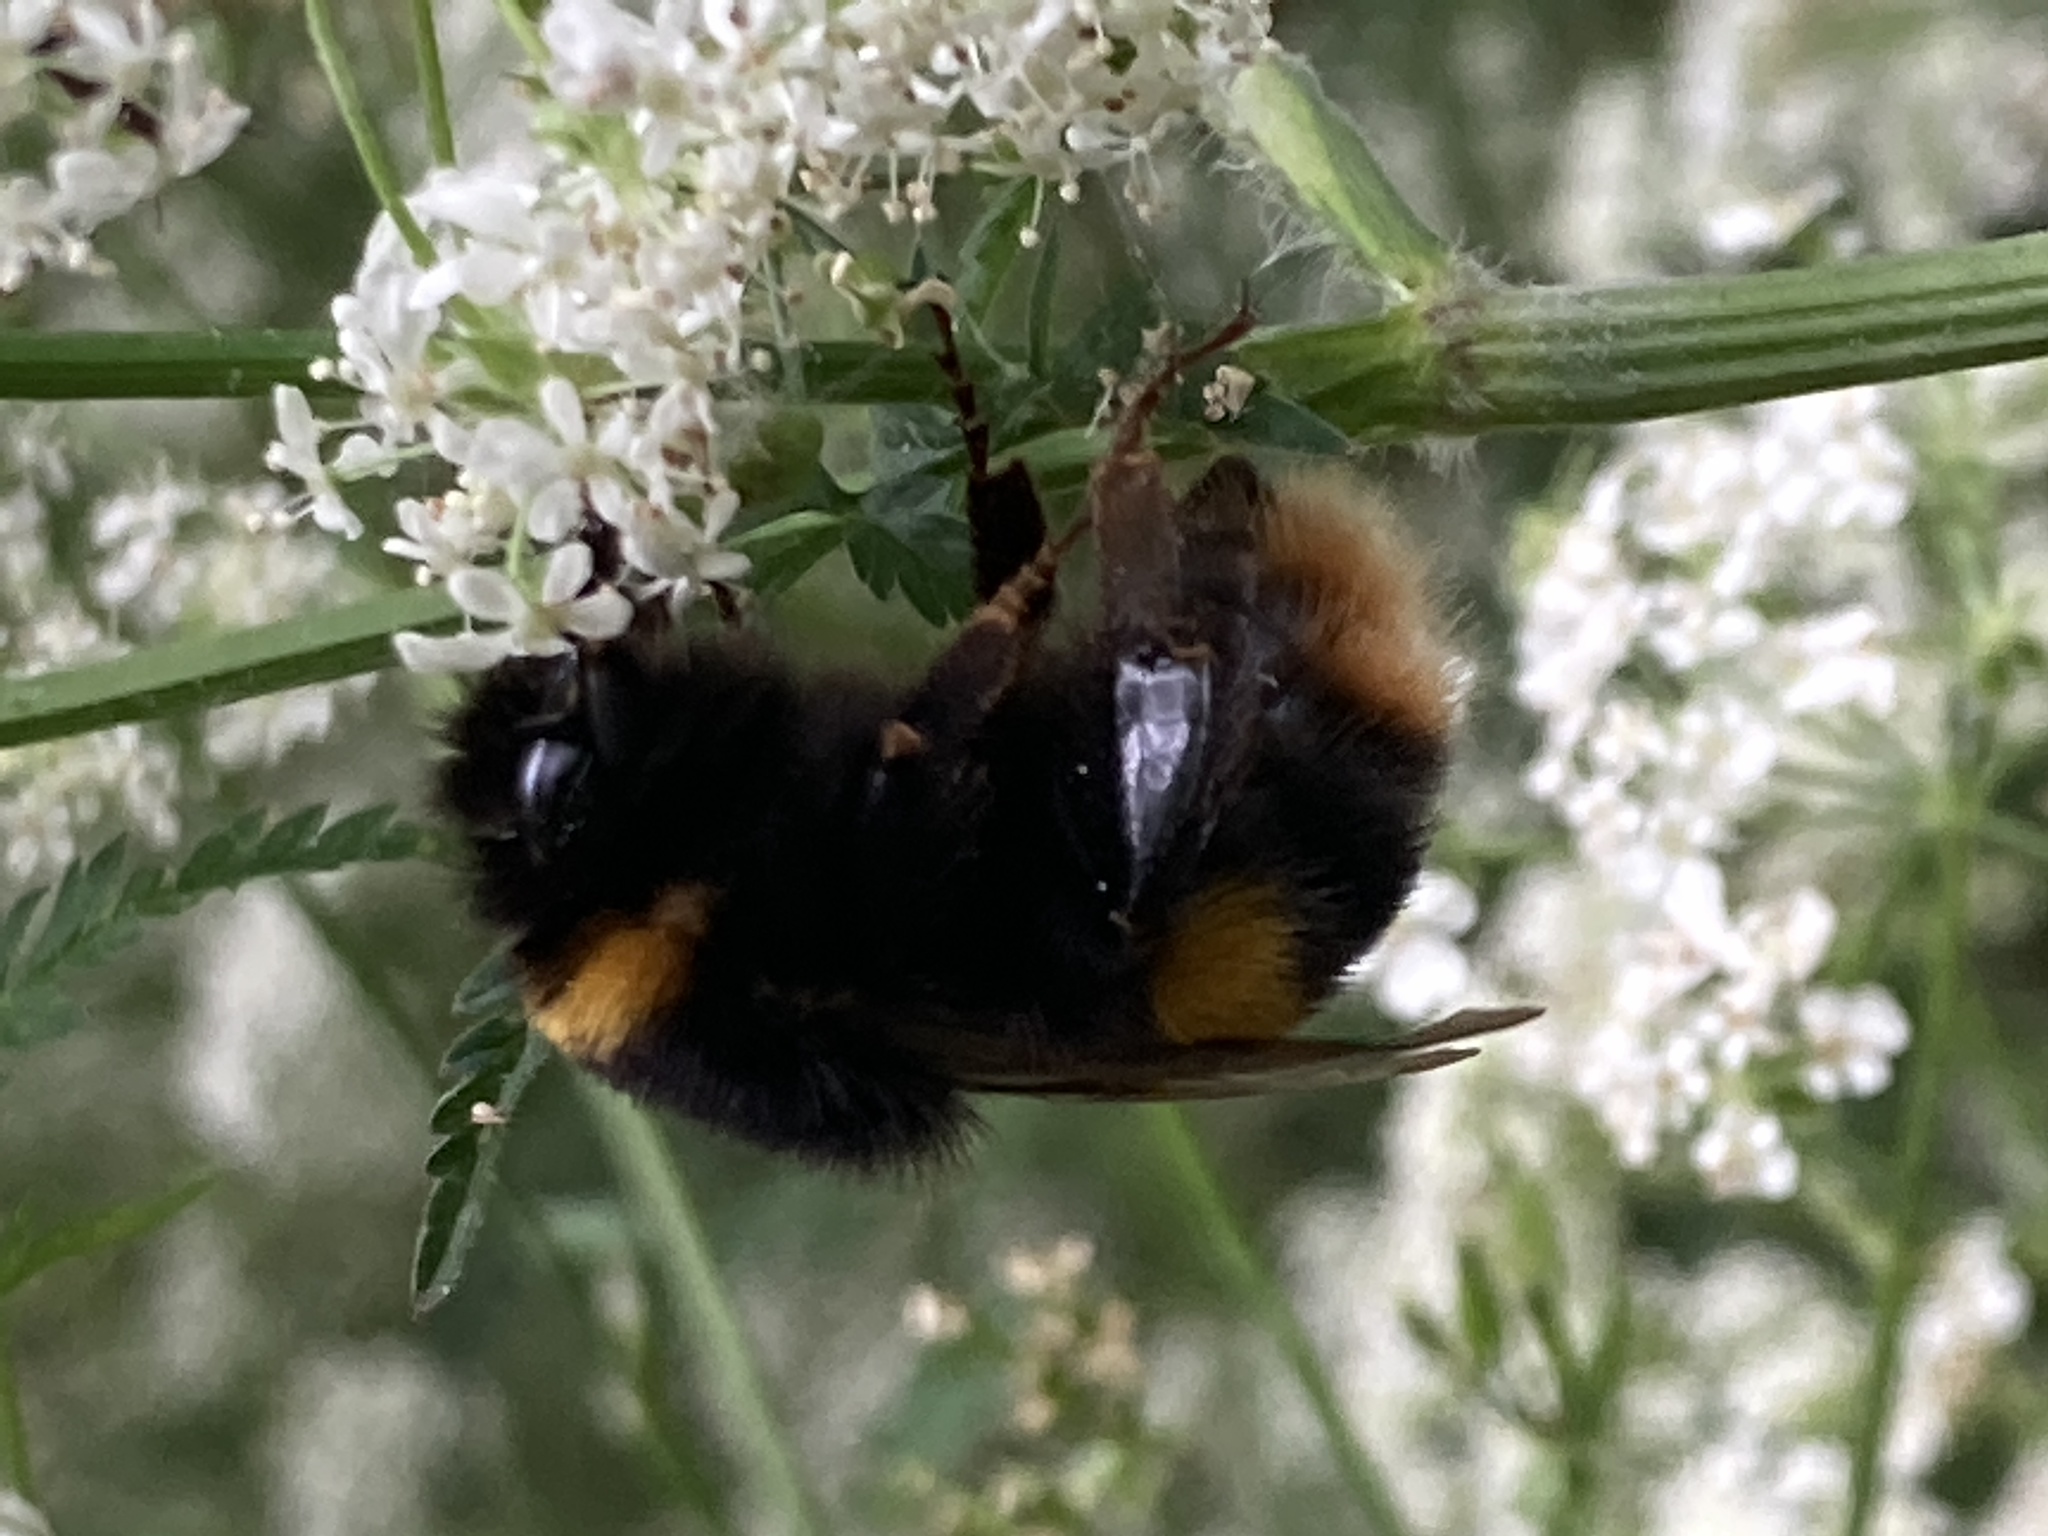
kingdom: Animalia
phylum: Arthropoda
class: Insecta
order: Hymenoptera
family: Apidae
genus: Bombus
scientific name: Bombus terrestris
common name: Buff-tailed bumblebee
